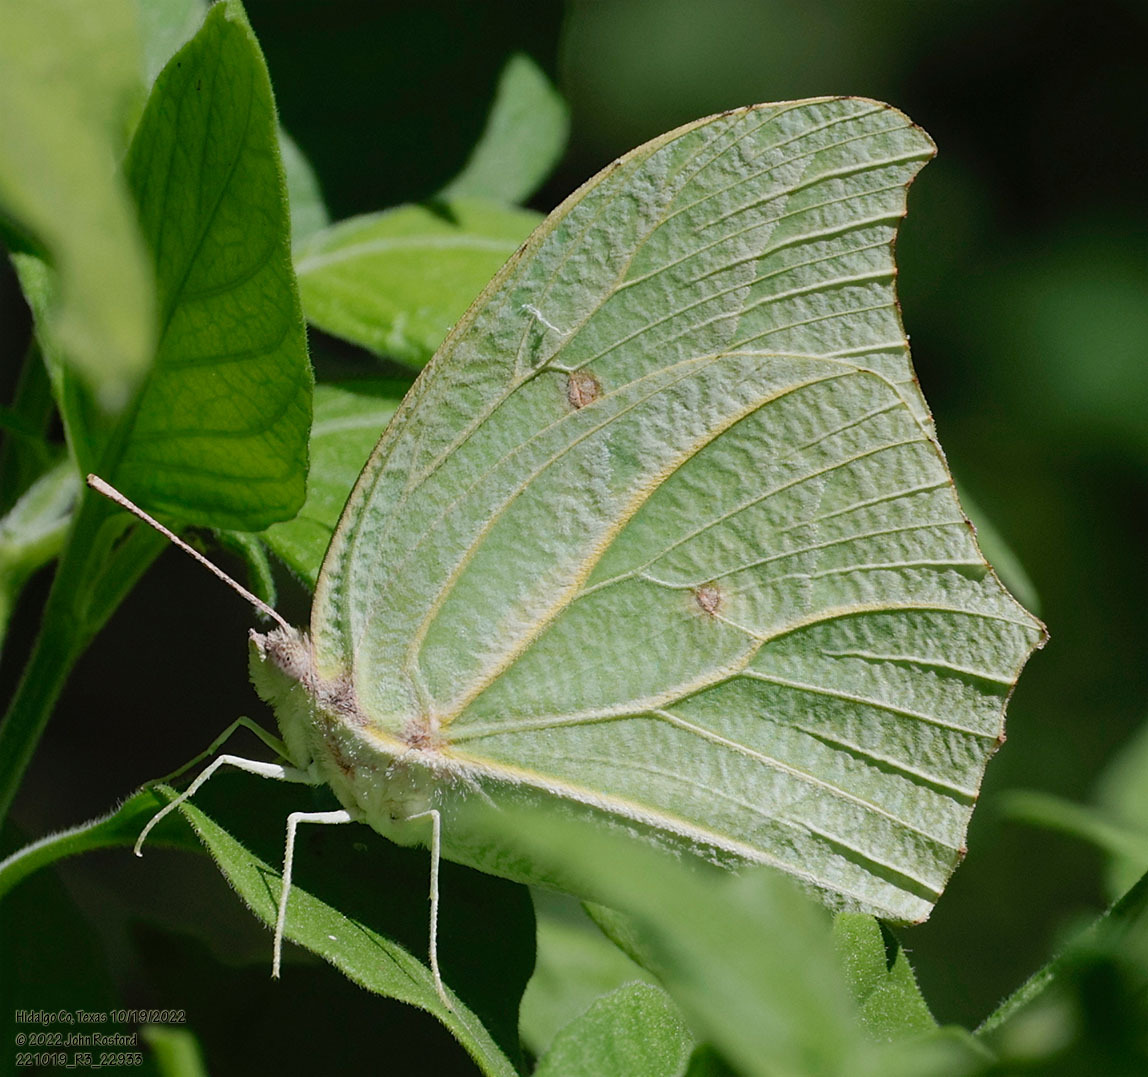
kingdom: Animalia
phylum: Arthropoda
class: Insecta
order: Lepidoptera
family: Pieridae
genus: Anteos
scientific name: Anteos clorinde
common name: White angled sulphur
